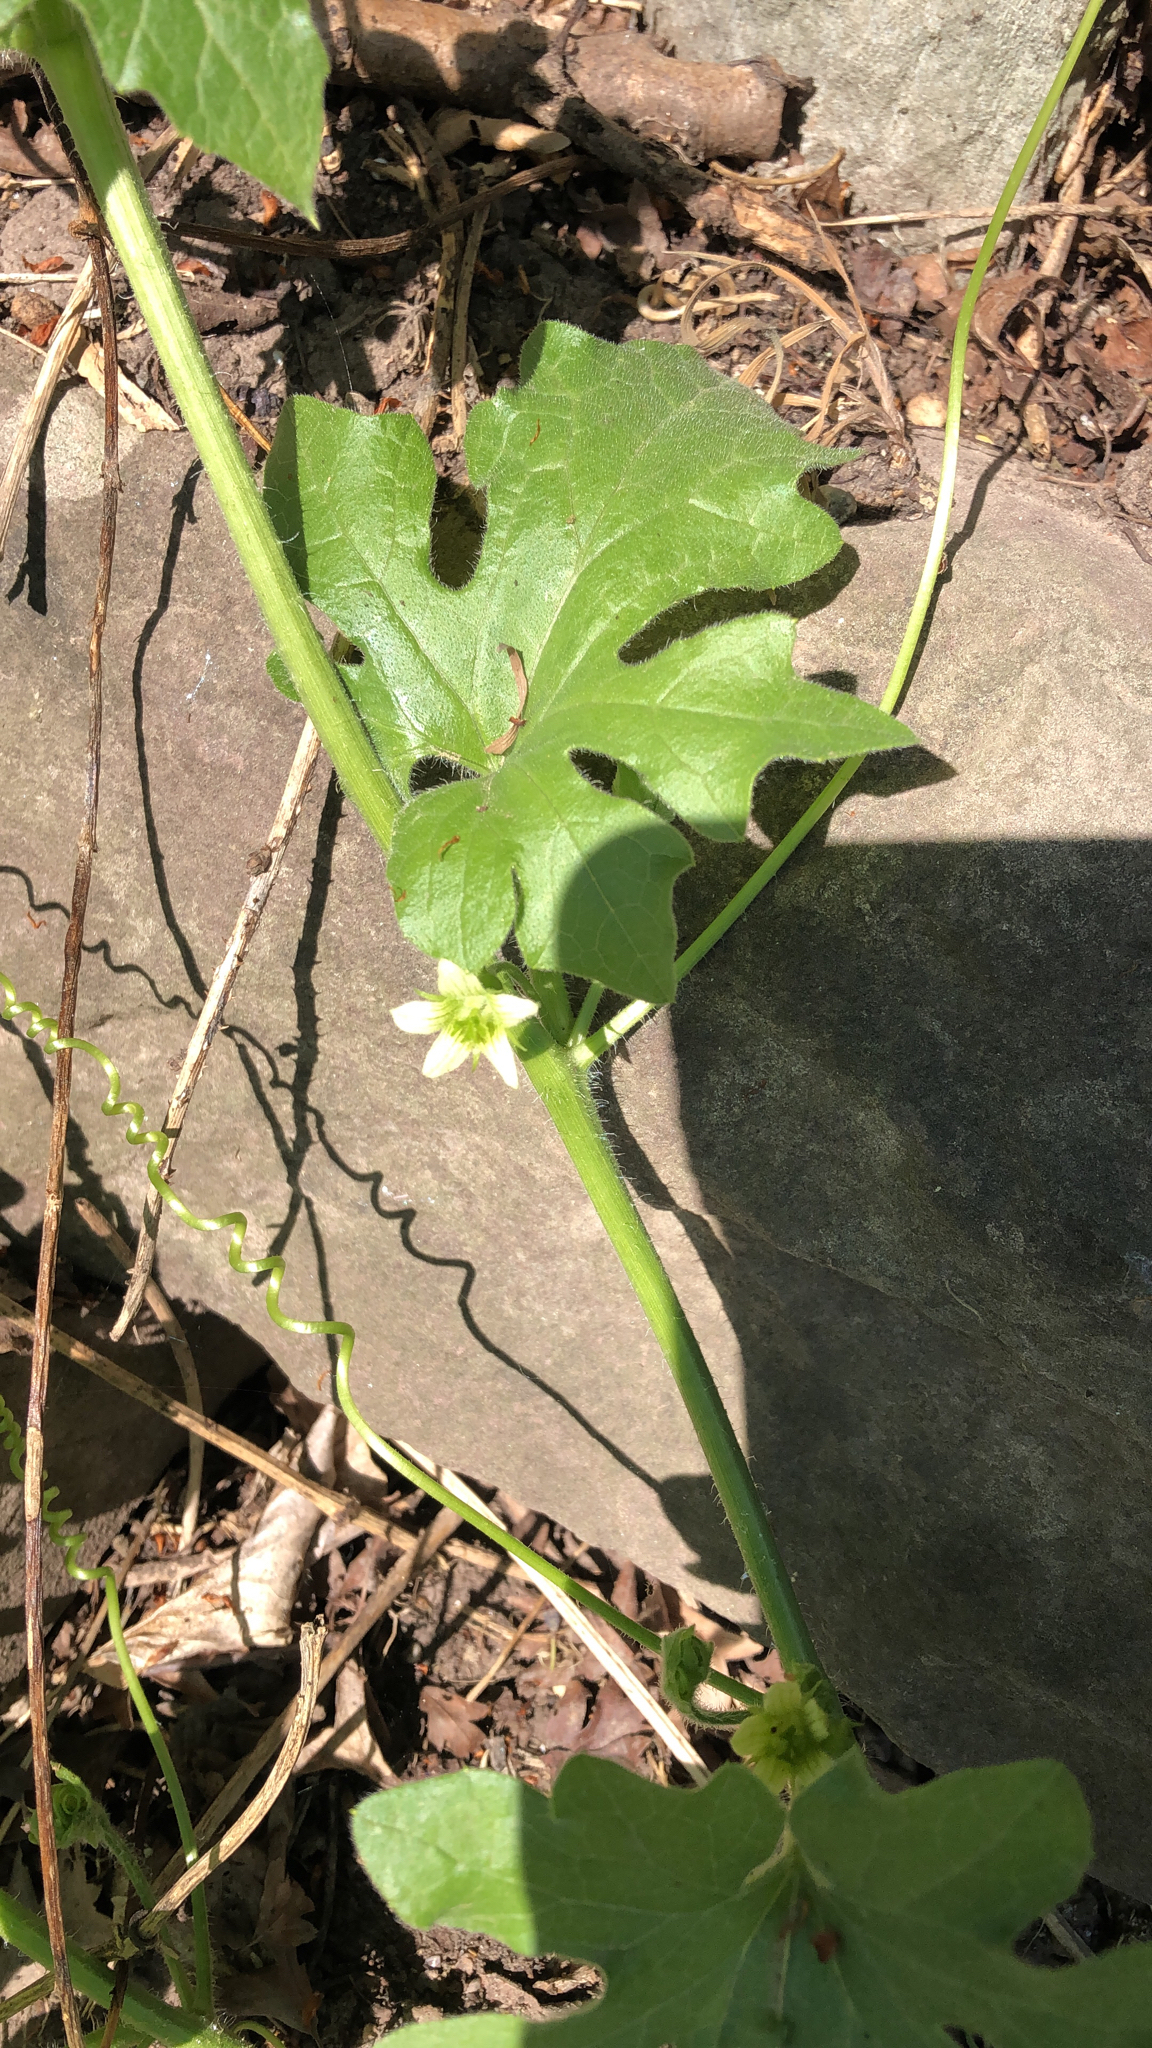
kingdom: Plantae
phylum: Tracheophyta
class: Magnoliopsida
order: Cucurbitales
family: Cucurbitaceae
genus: Bryonia
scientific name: Bryonia cretica
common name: Cretan bryony
